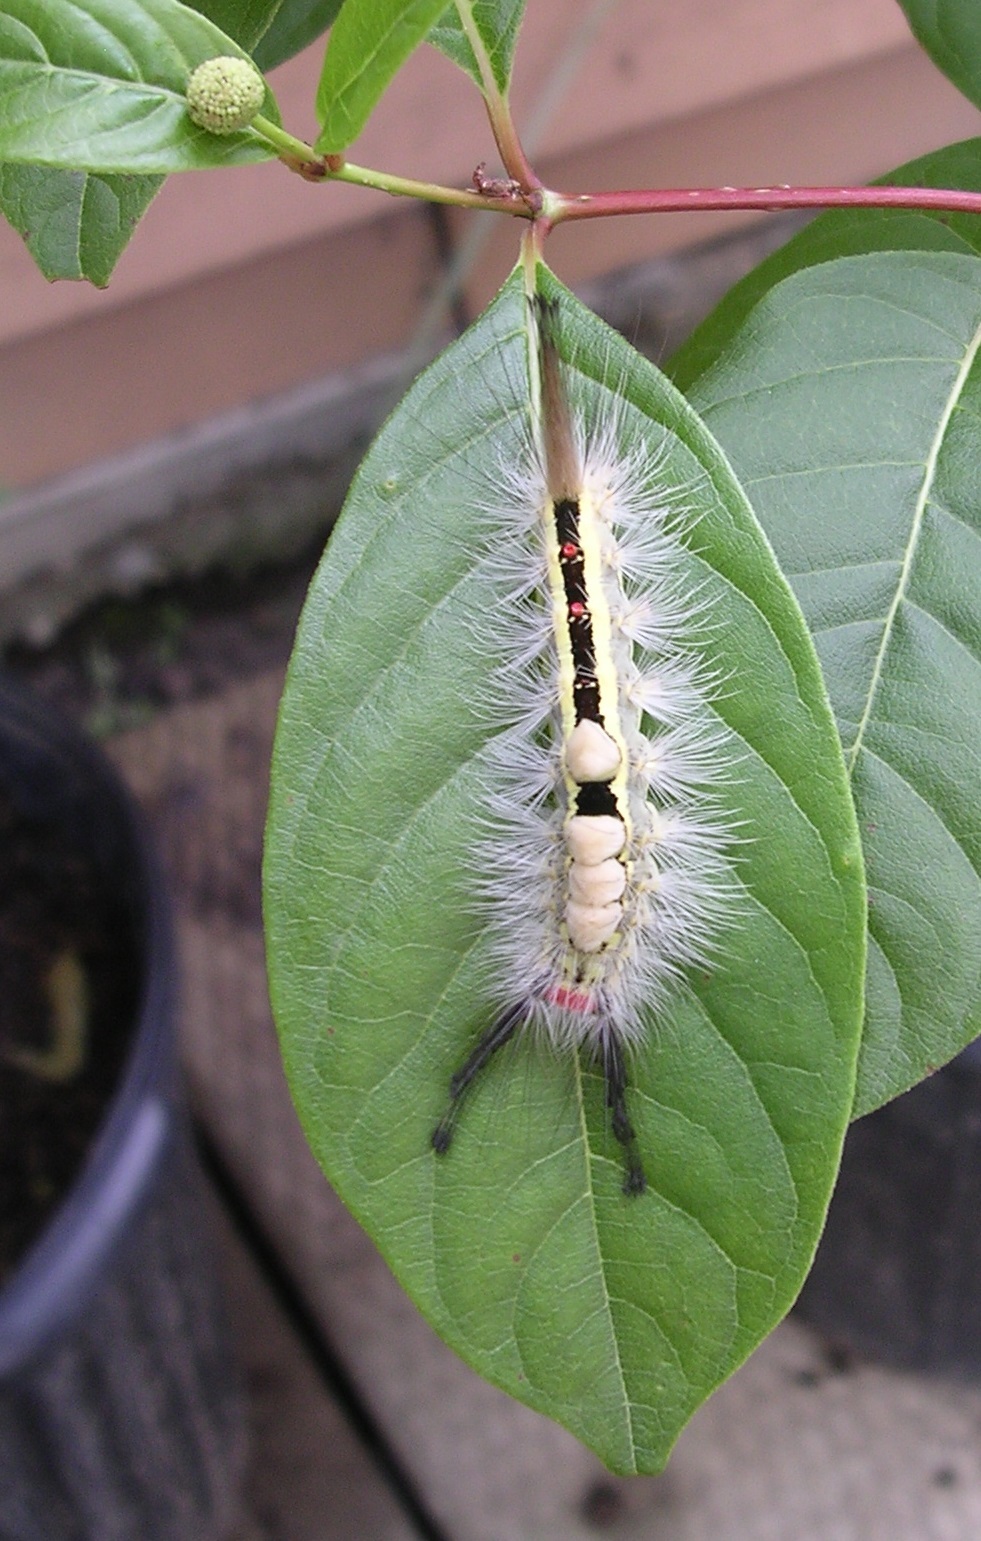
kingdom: Animalia
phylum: Arthropoda
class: Insecta
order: Lepidoptera
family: Erebidae
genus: Orgyia
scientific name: Orgyia leucostigma
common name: White-marked tussock moth
